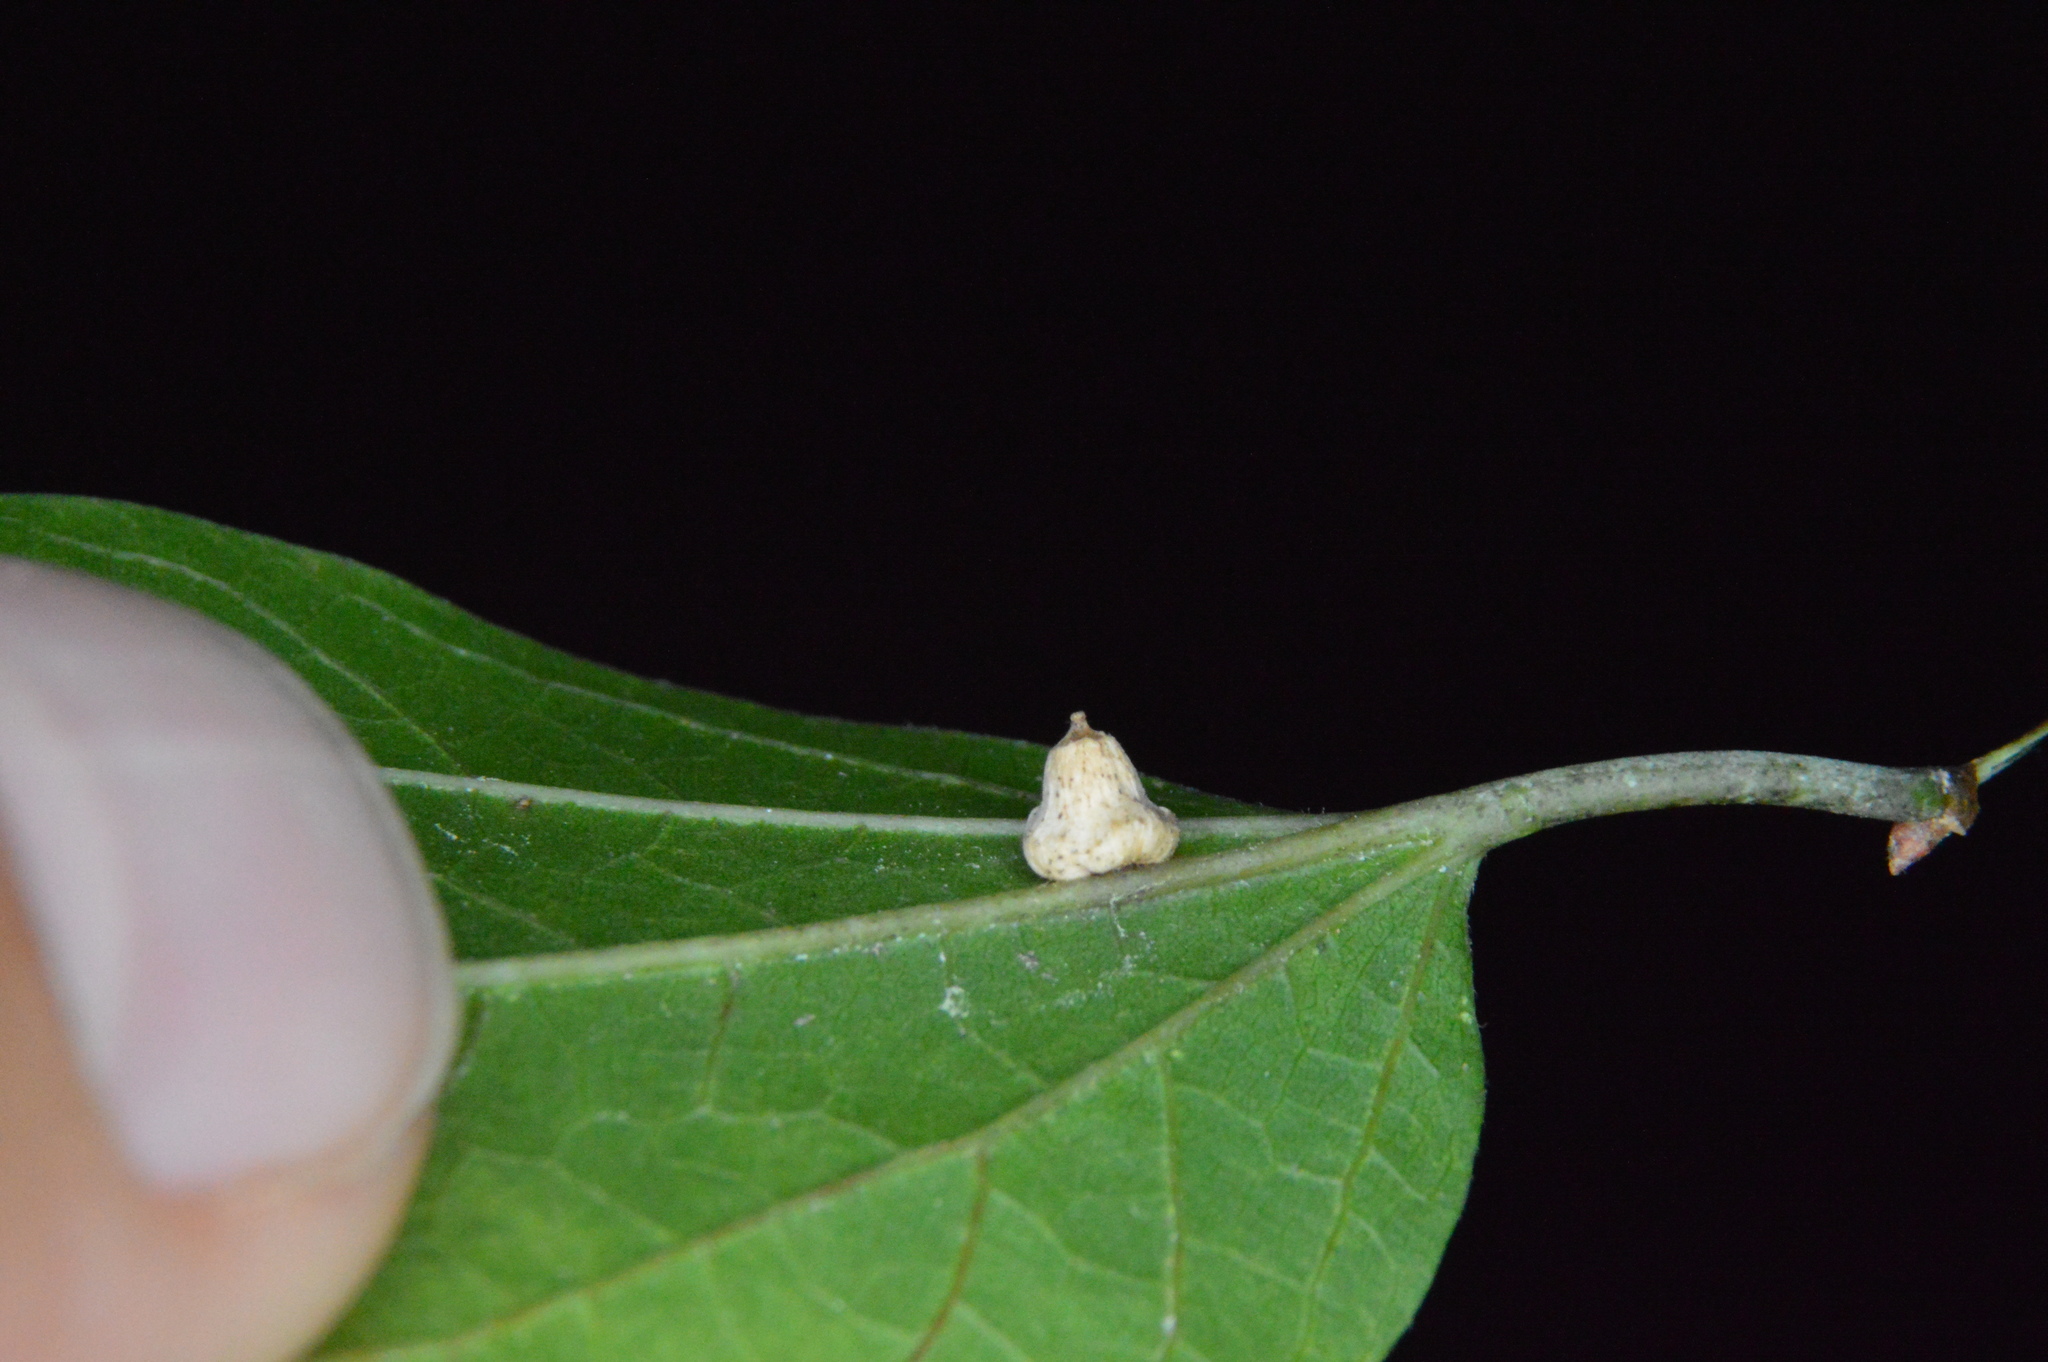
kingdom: Animalia
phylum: Arthropoda
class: Insecta
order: Diptera
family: Cecidomyiidae
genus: Celticecis
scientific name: Celticecis spiniformis
